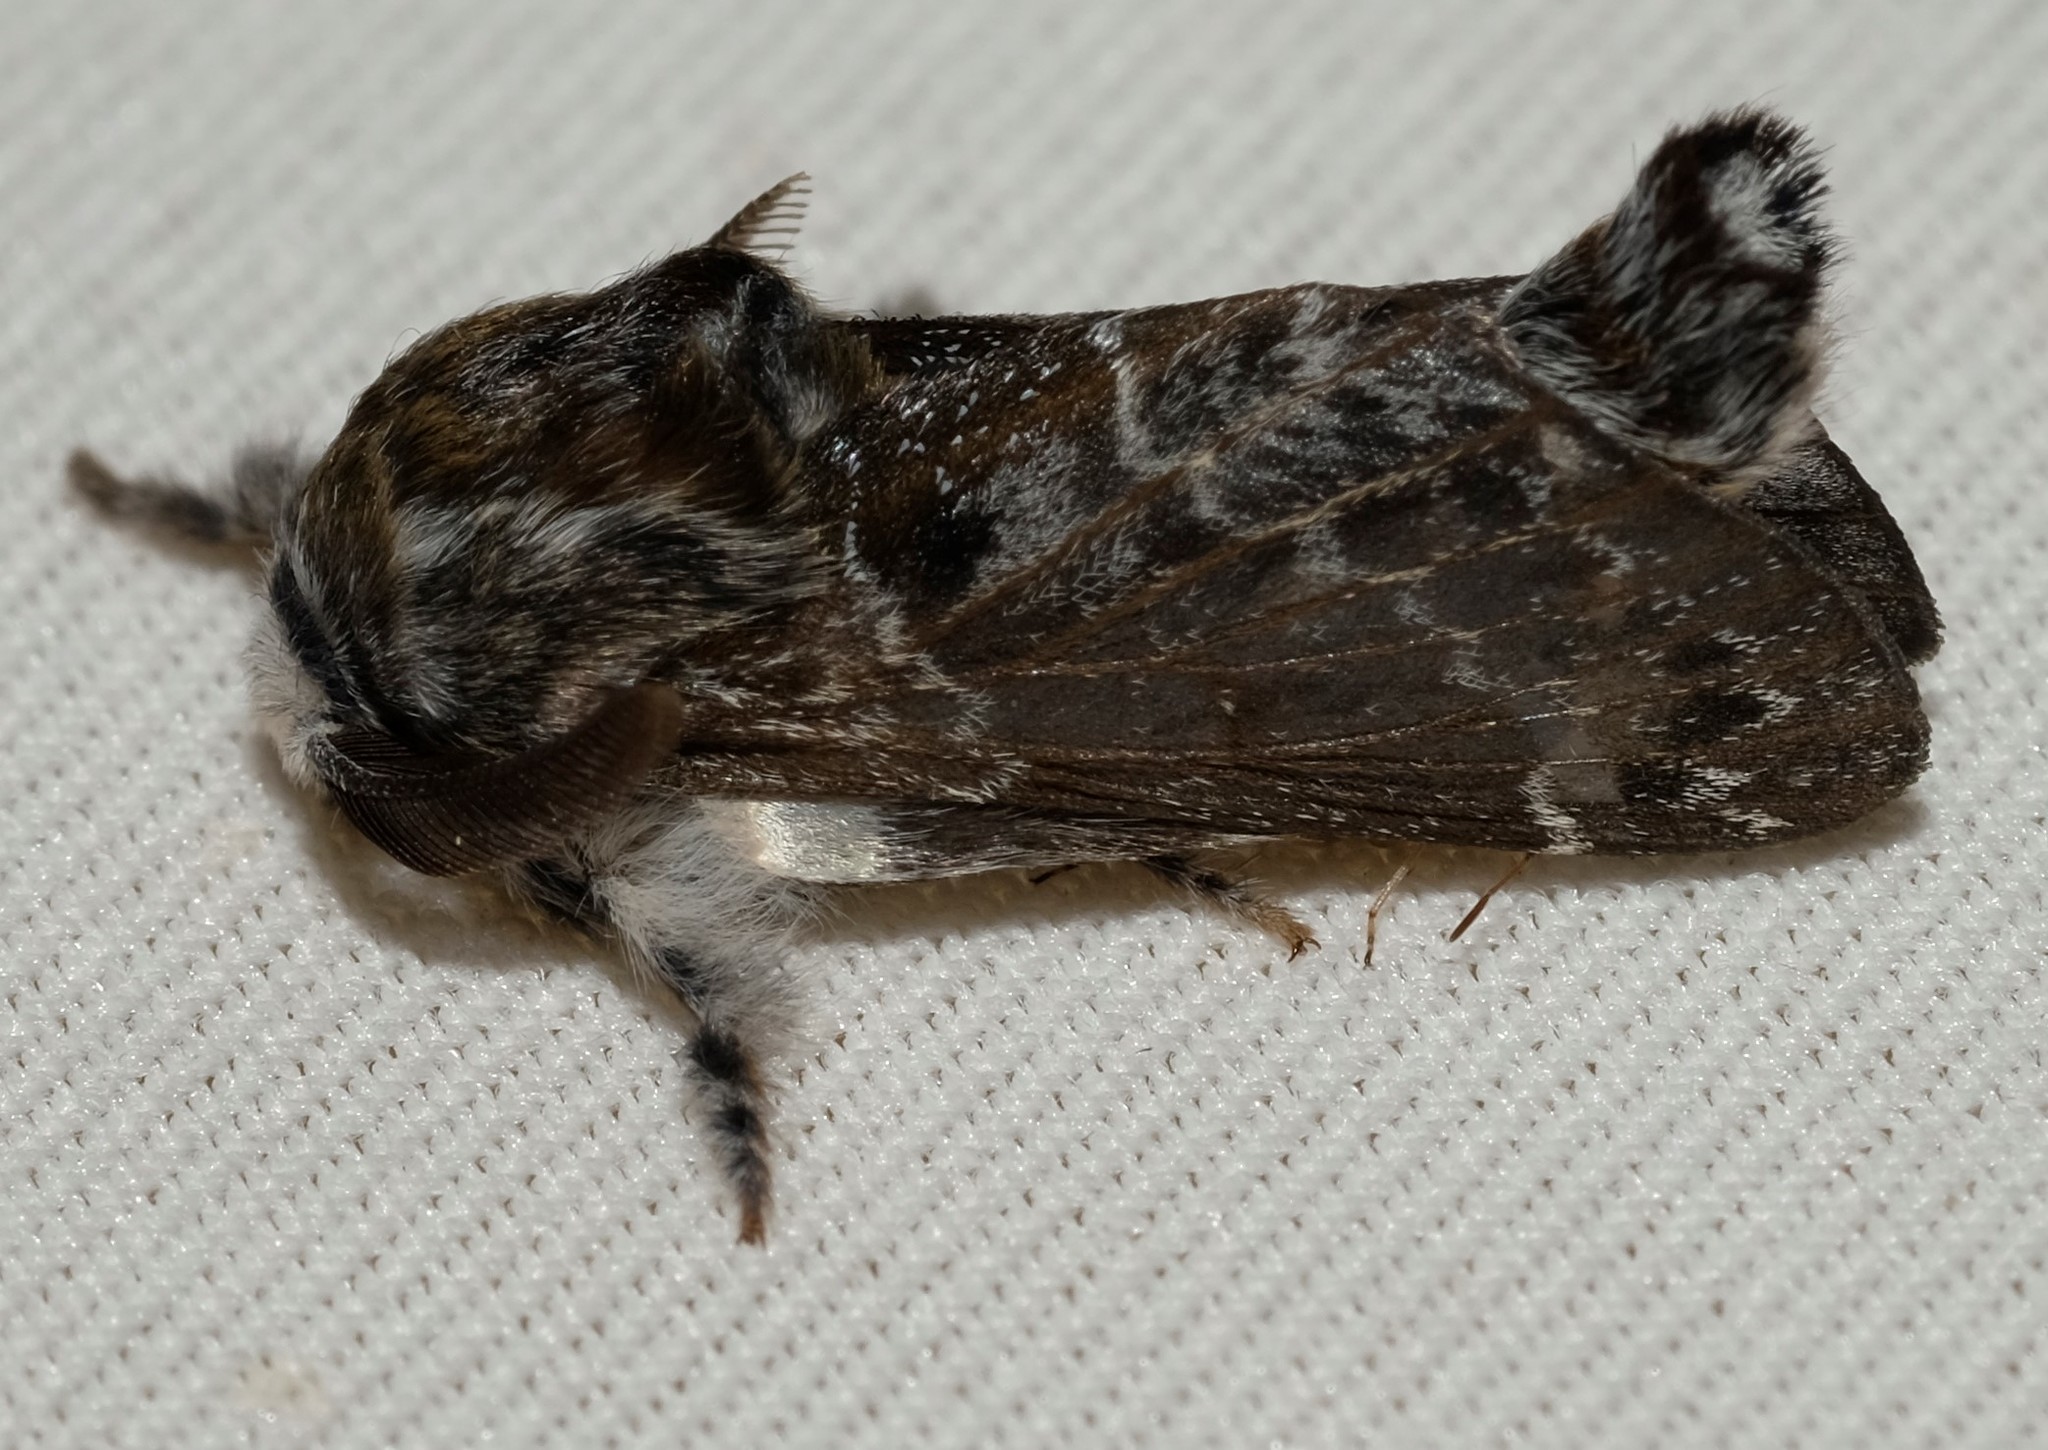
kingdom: Animalia
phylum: Arthropoda
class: Insecta
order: Lepidoptera
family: Lasiocampidae
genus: Genduara
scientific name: Genduara subnotata
